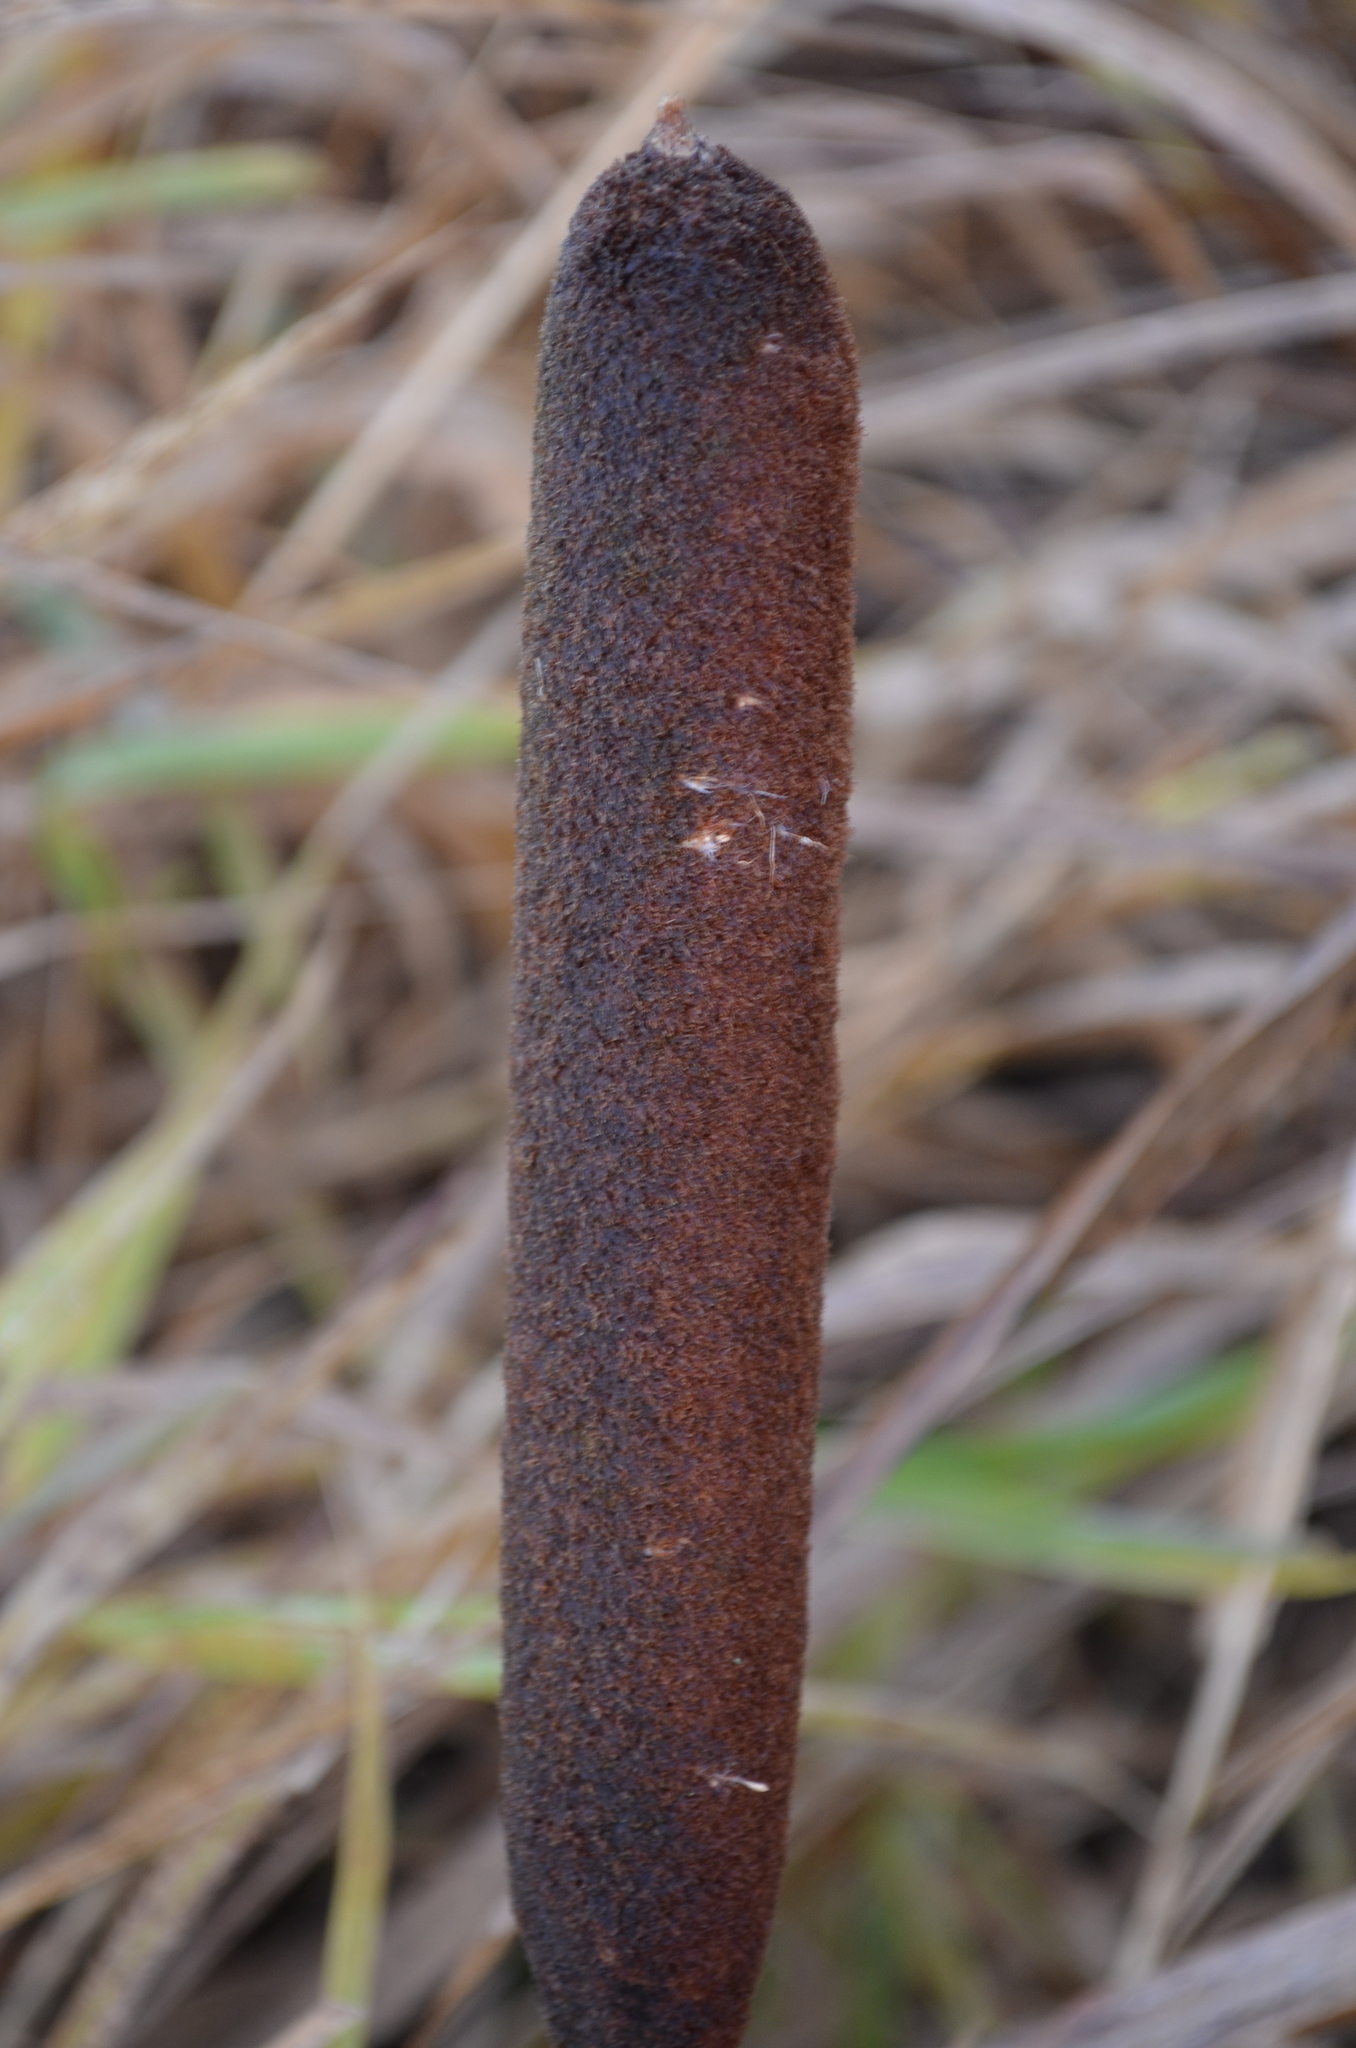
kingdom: Plantae
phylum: Tracheophyta
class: Liliopsida
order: Poales
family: Typhaceae
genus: Typha
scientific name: Typha latifolia
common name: Broadleaf cattail
